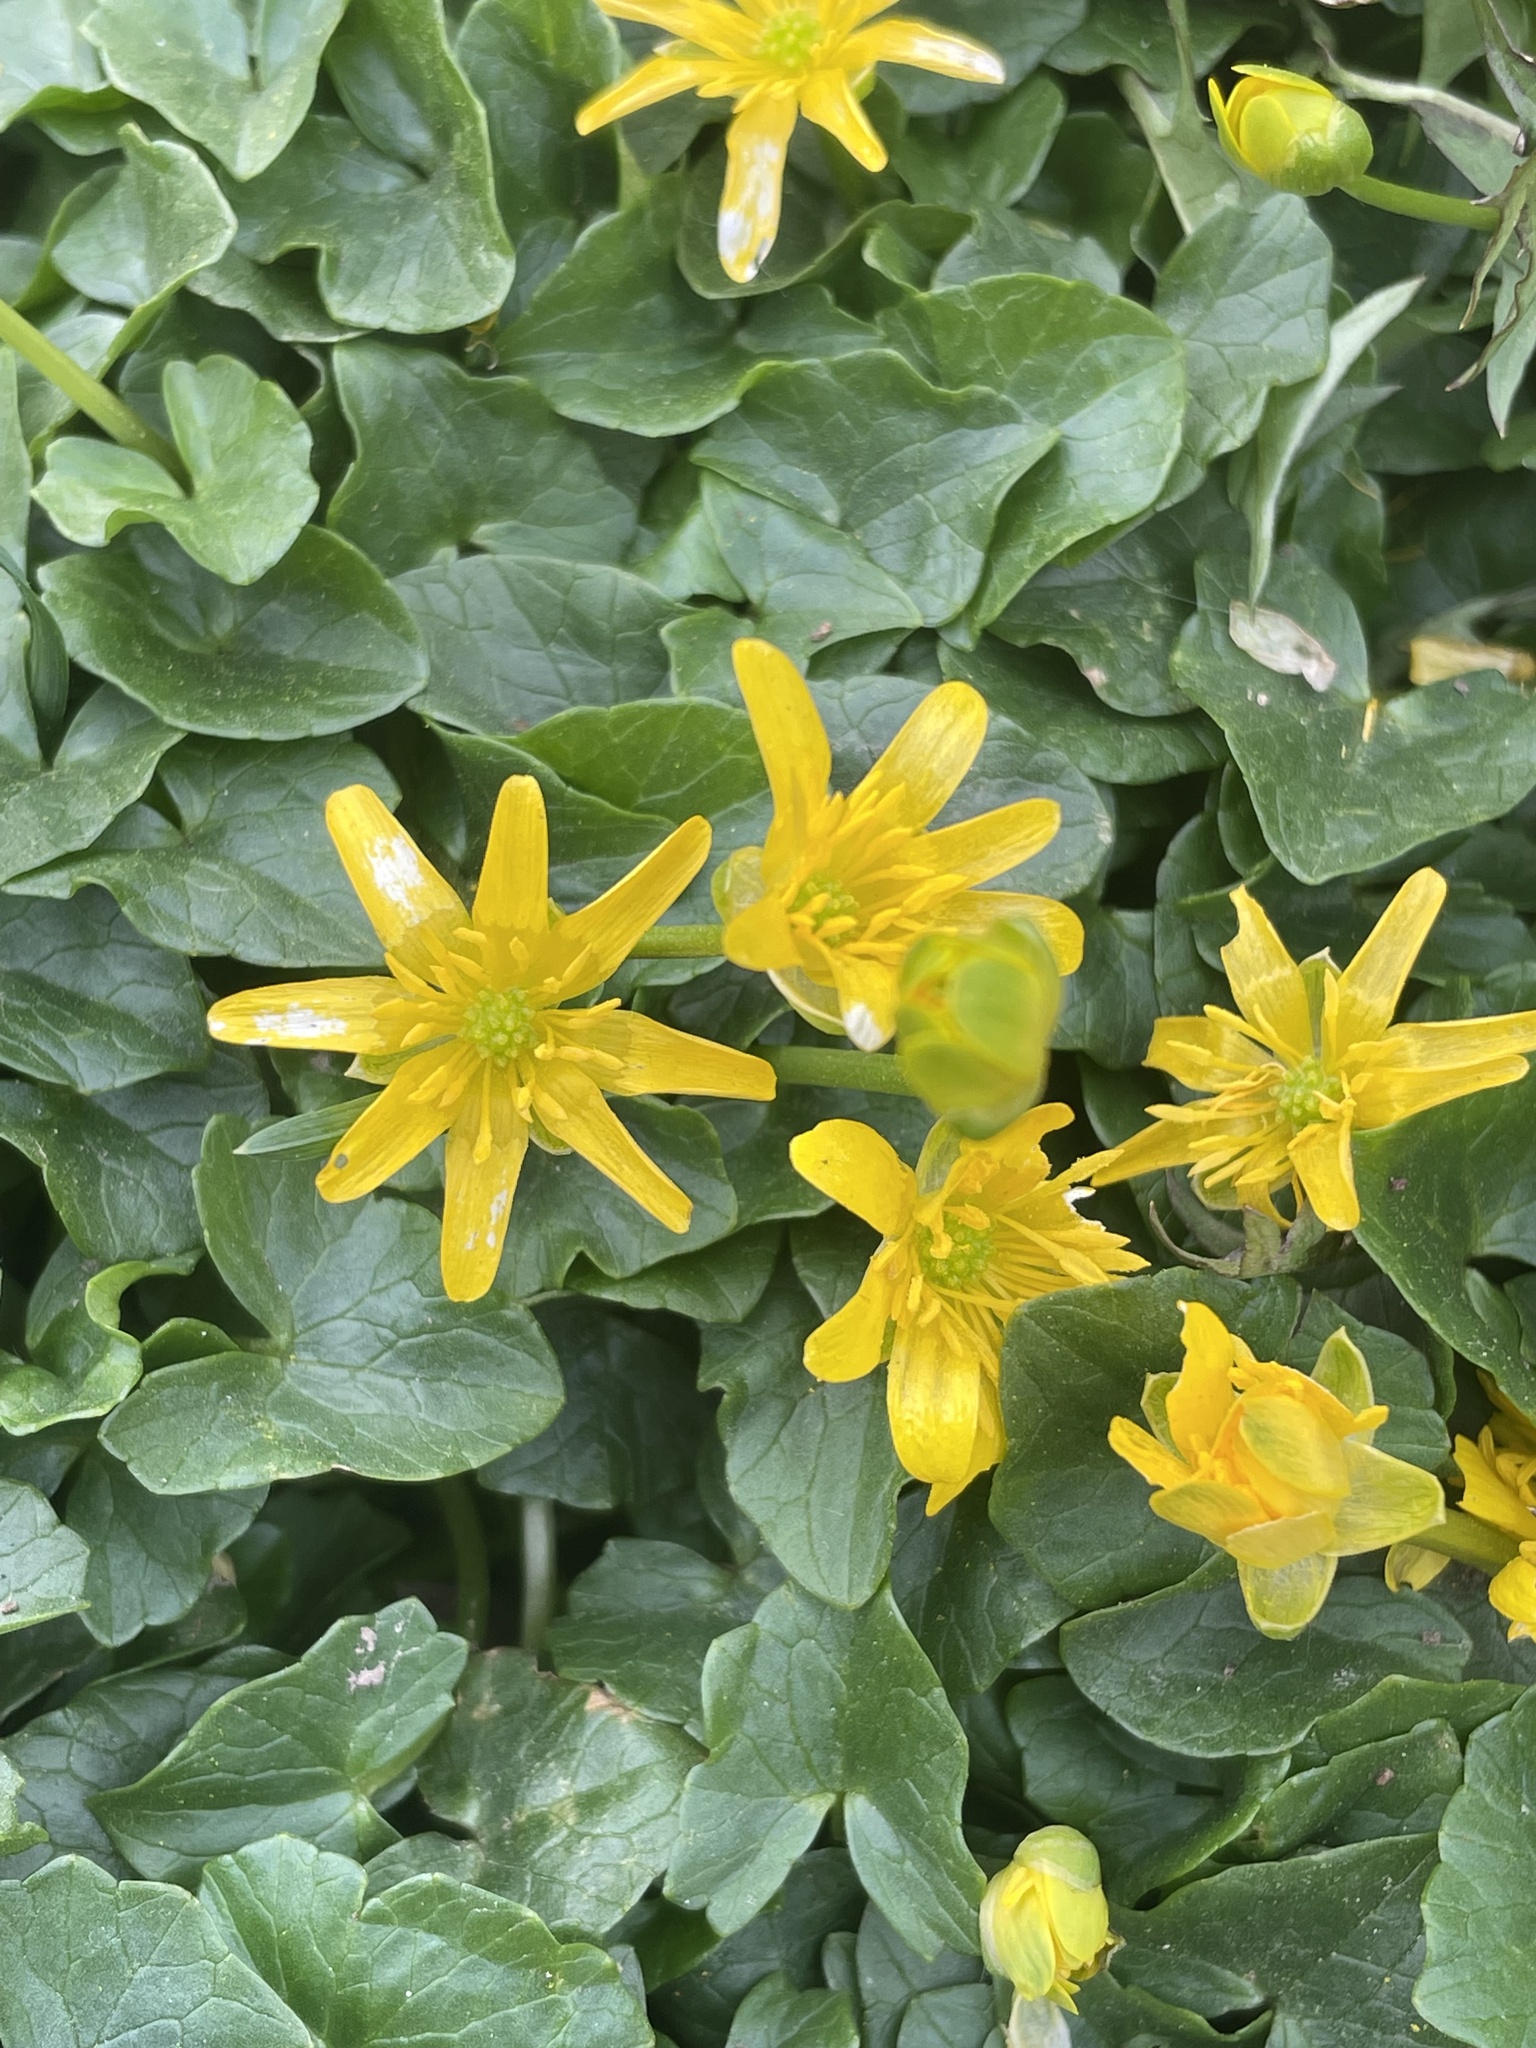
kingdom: Plantae
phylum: Tracheophyta
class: Magnoliopsida
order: Ranunculales
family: Ranunculaceae
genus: Ficaria
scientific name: Ficaria verna
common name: Lesser celandine
